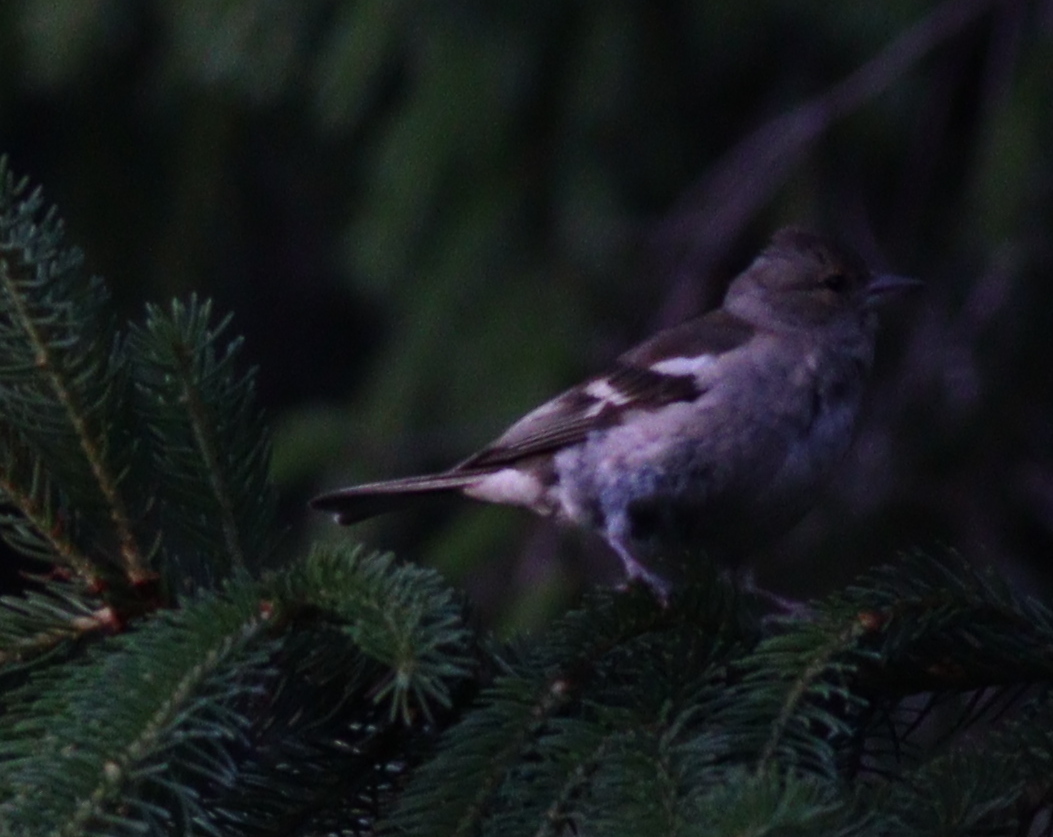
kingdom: Animalia
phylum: Chordata
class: Aves
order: Passeriformes
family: Fringillidae
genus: Fringilla
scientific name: Fringilla coelebs
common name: Common chaffinch
